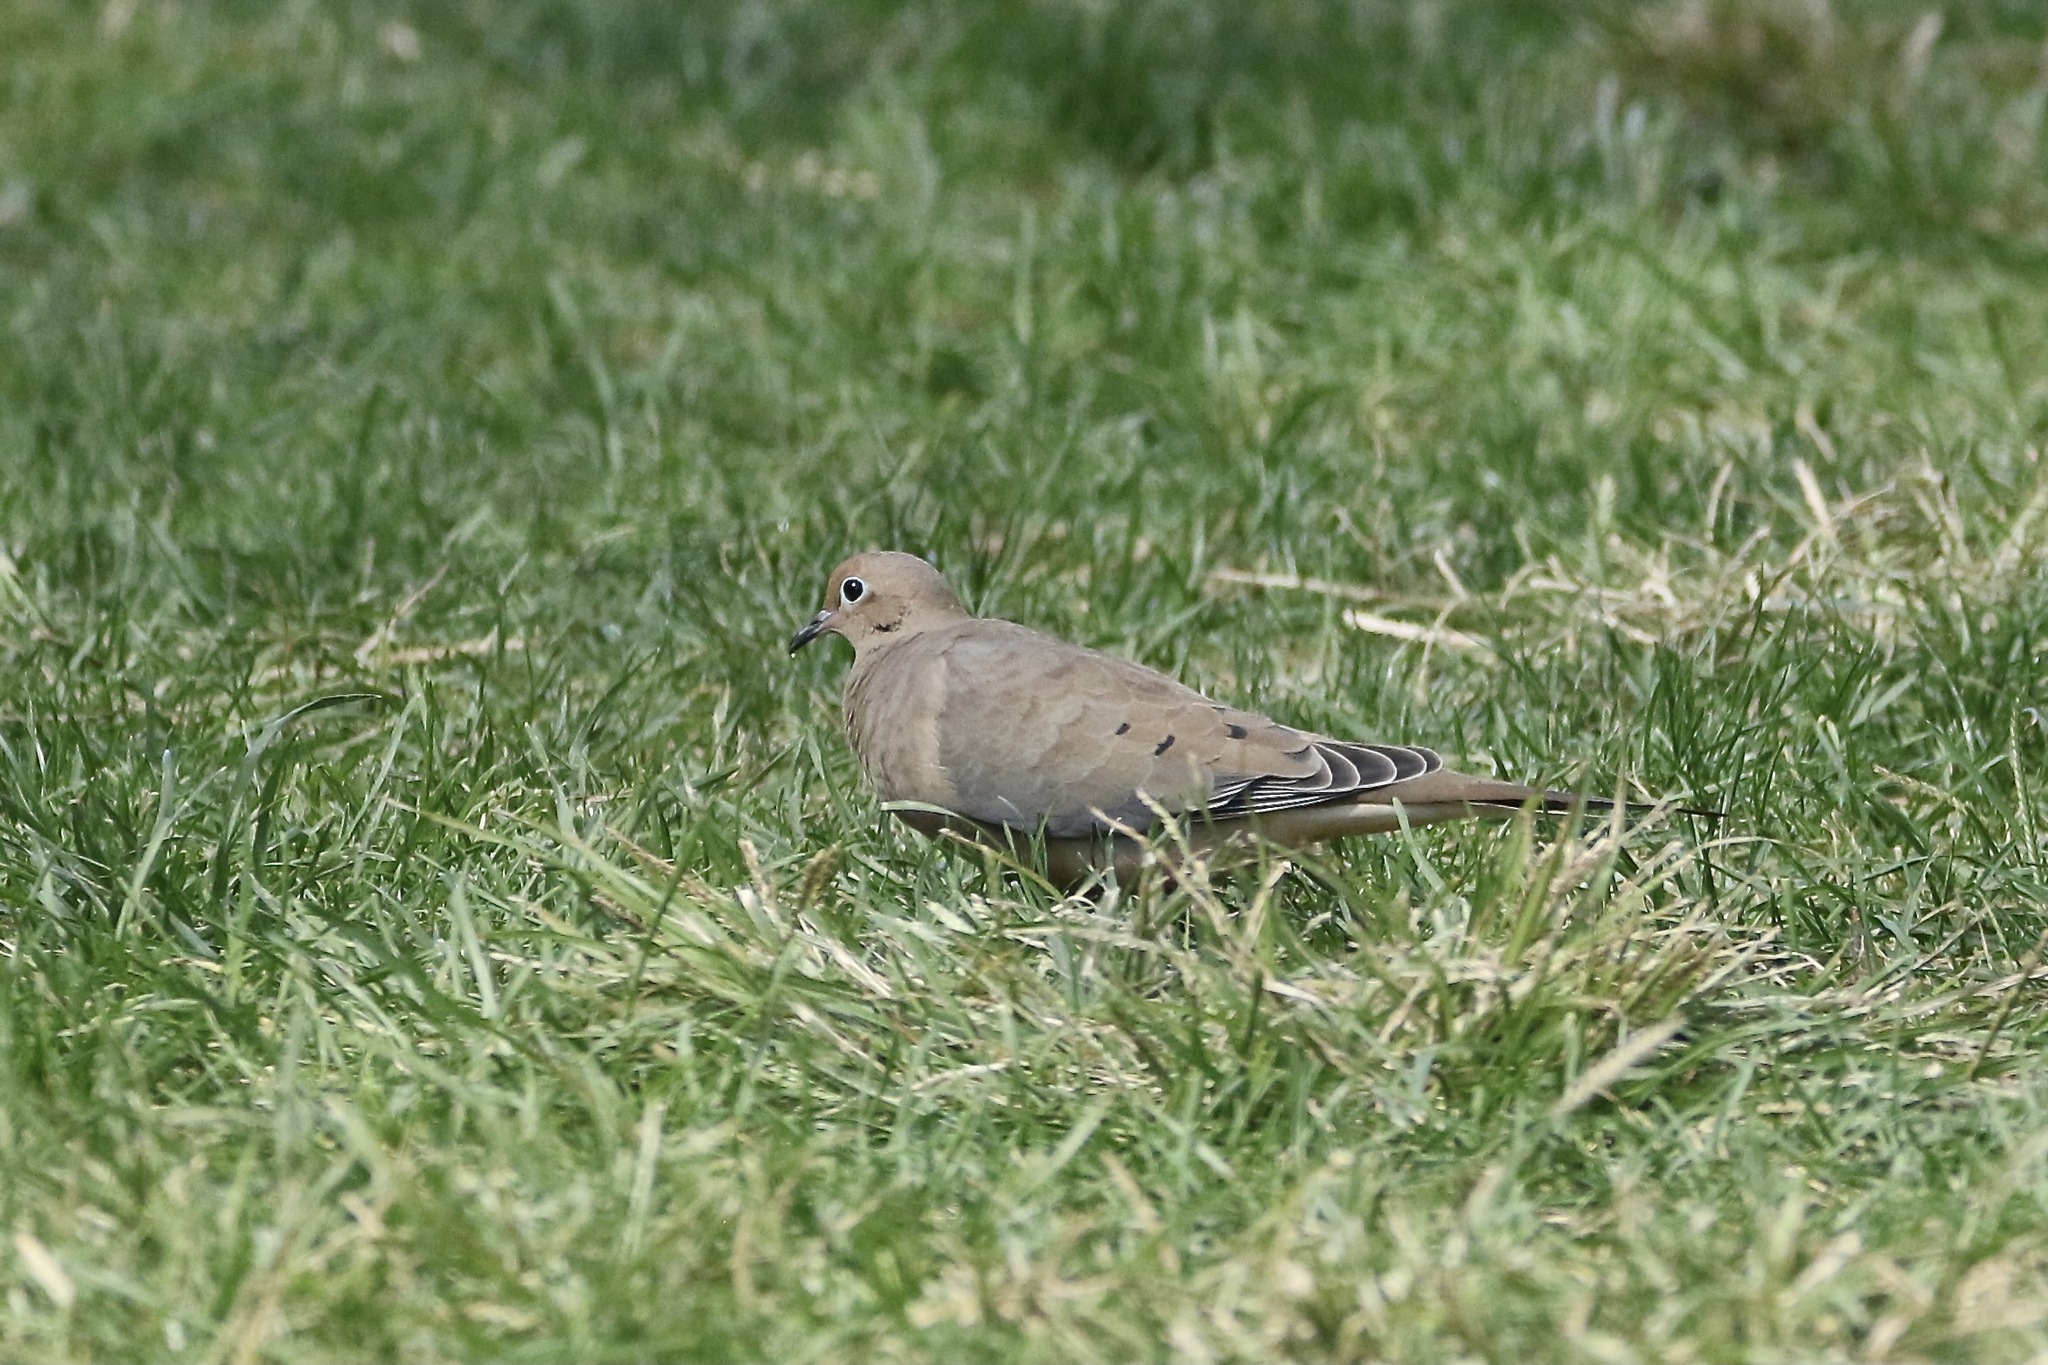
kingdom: Animalia
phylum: Chordata
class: Aves
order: Columbiformes
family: Columbidae
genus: Zenaida
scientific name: Zenaida macroura
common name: Mourning dove
